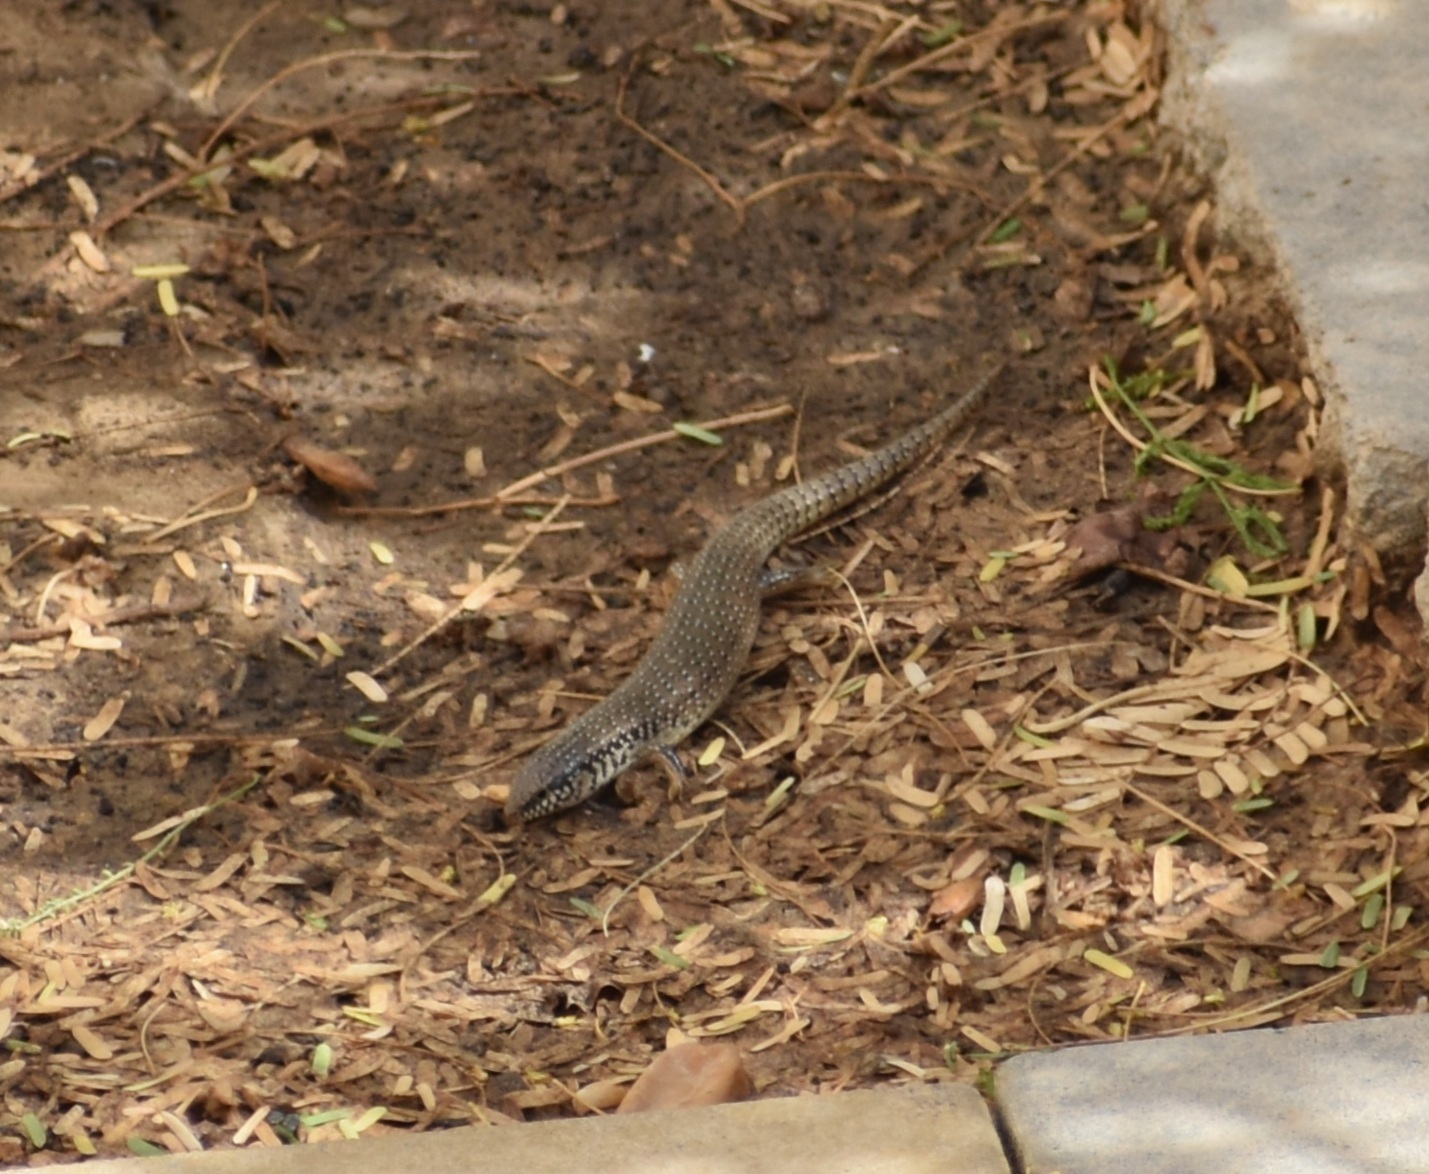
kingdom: Animalia
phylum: Chordata
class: Squamata
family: Scincidae
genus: Chalcides
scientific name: Chalcides ocellatus
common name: Ocellated skink
